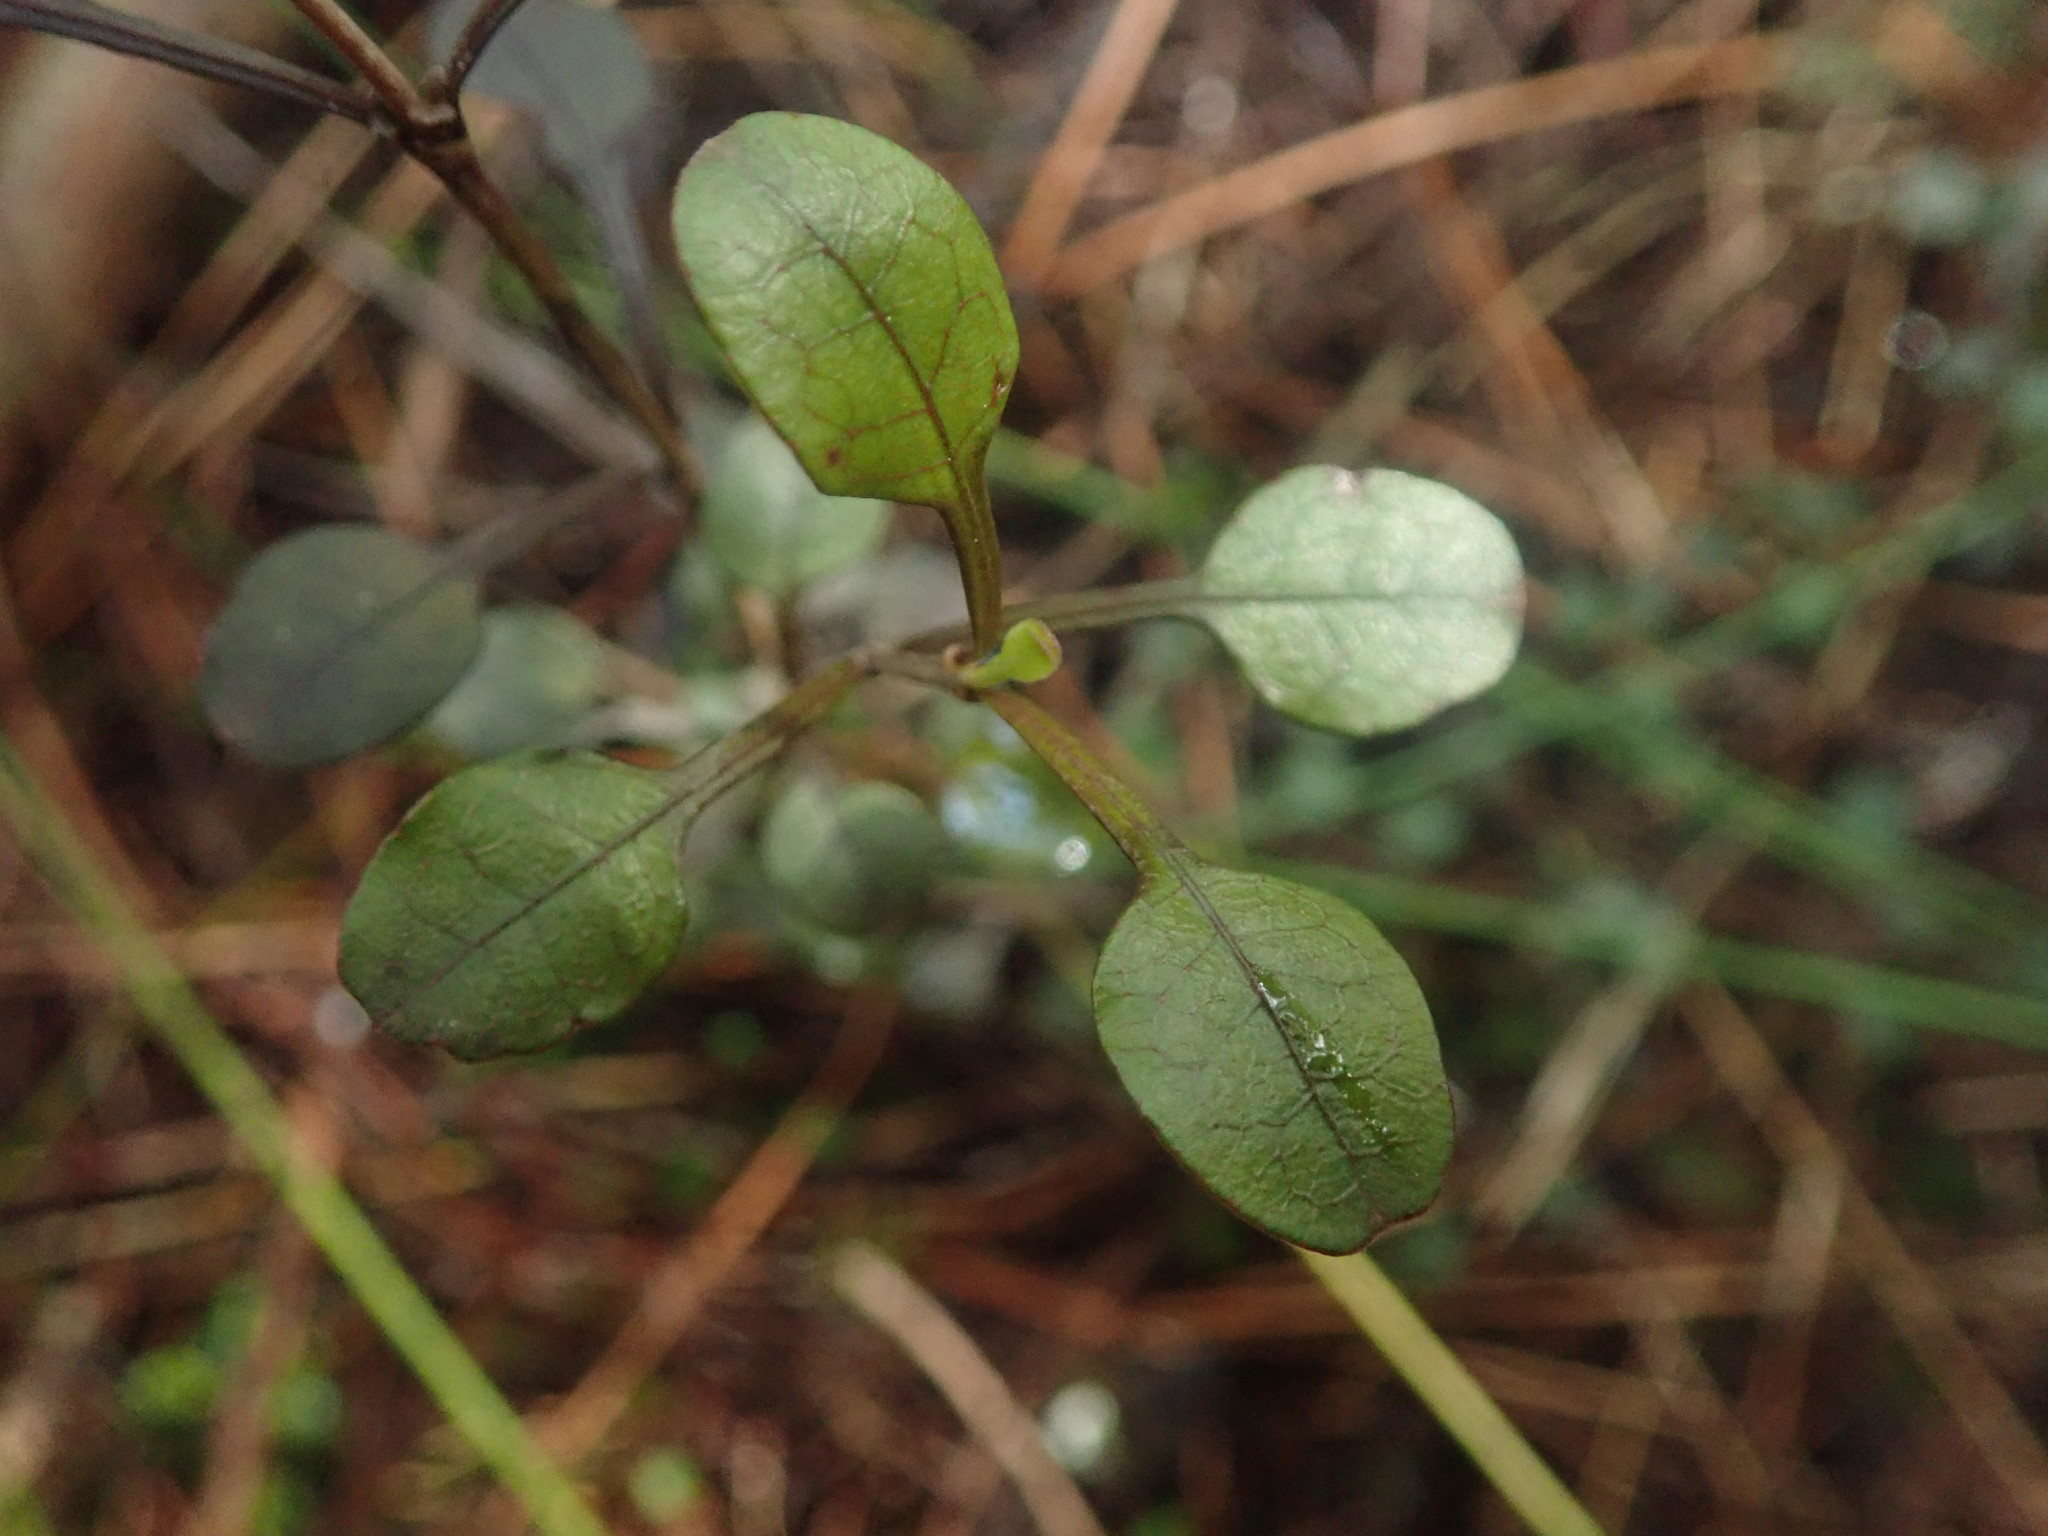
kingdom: Plantae
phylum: Tracheophyta
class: Magnoliopsida
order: Gentianales
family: Rubiaceae
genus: Coprosma
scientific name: Coprosma spathulata
